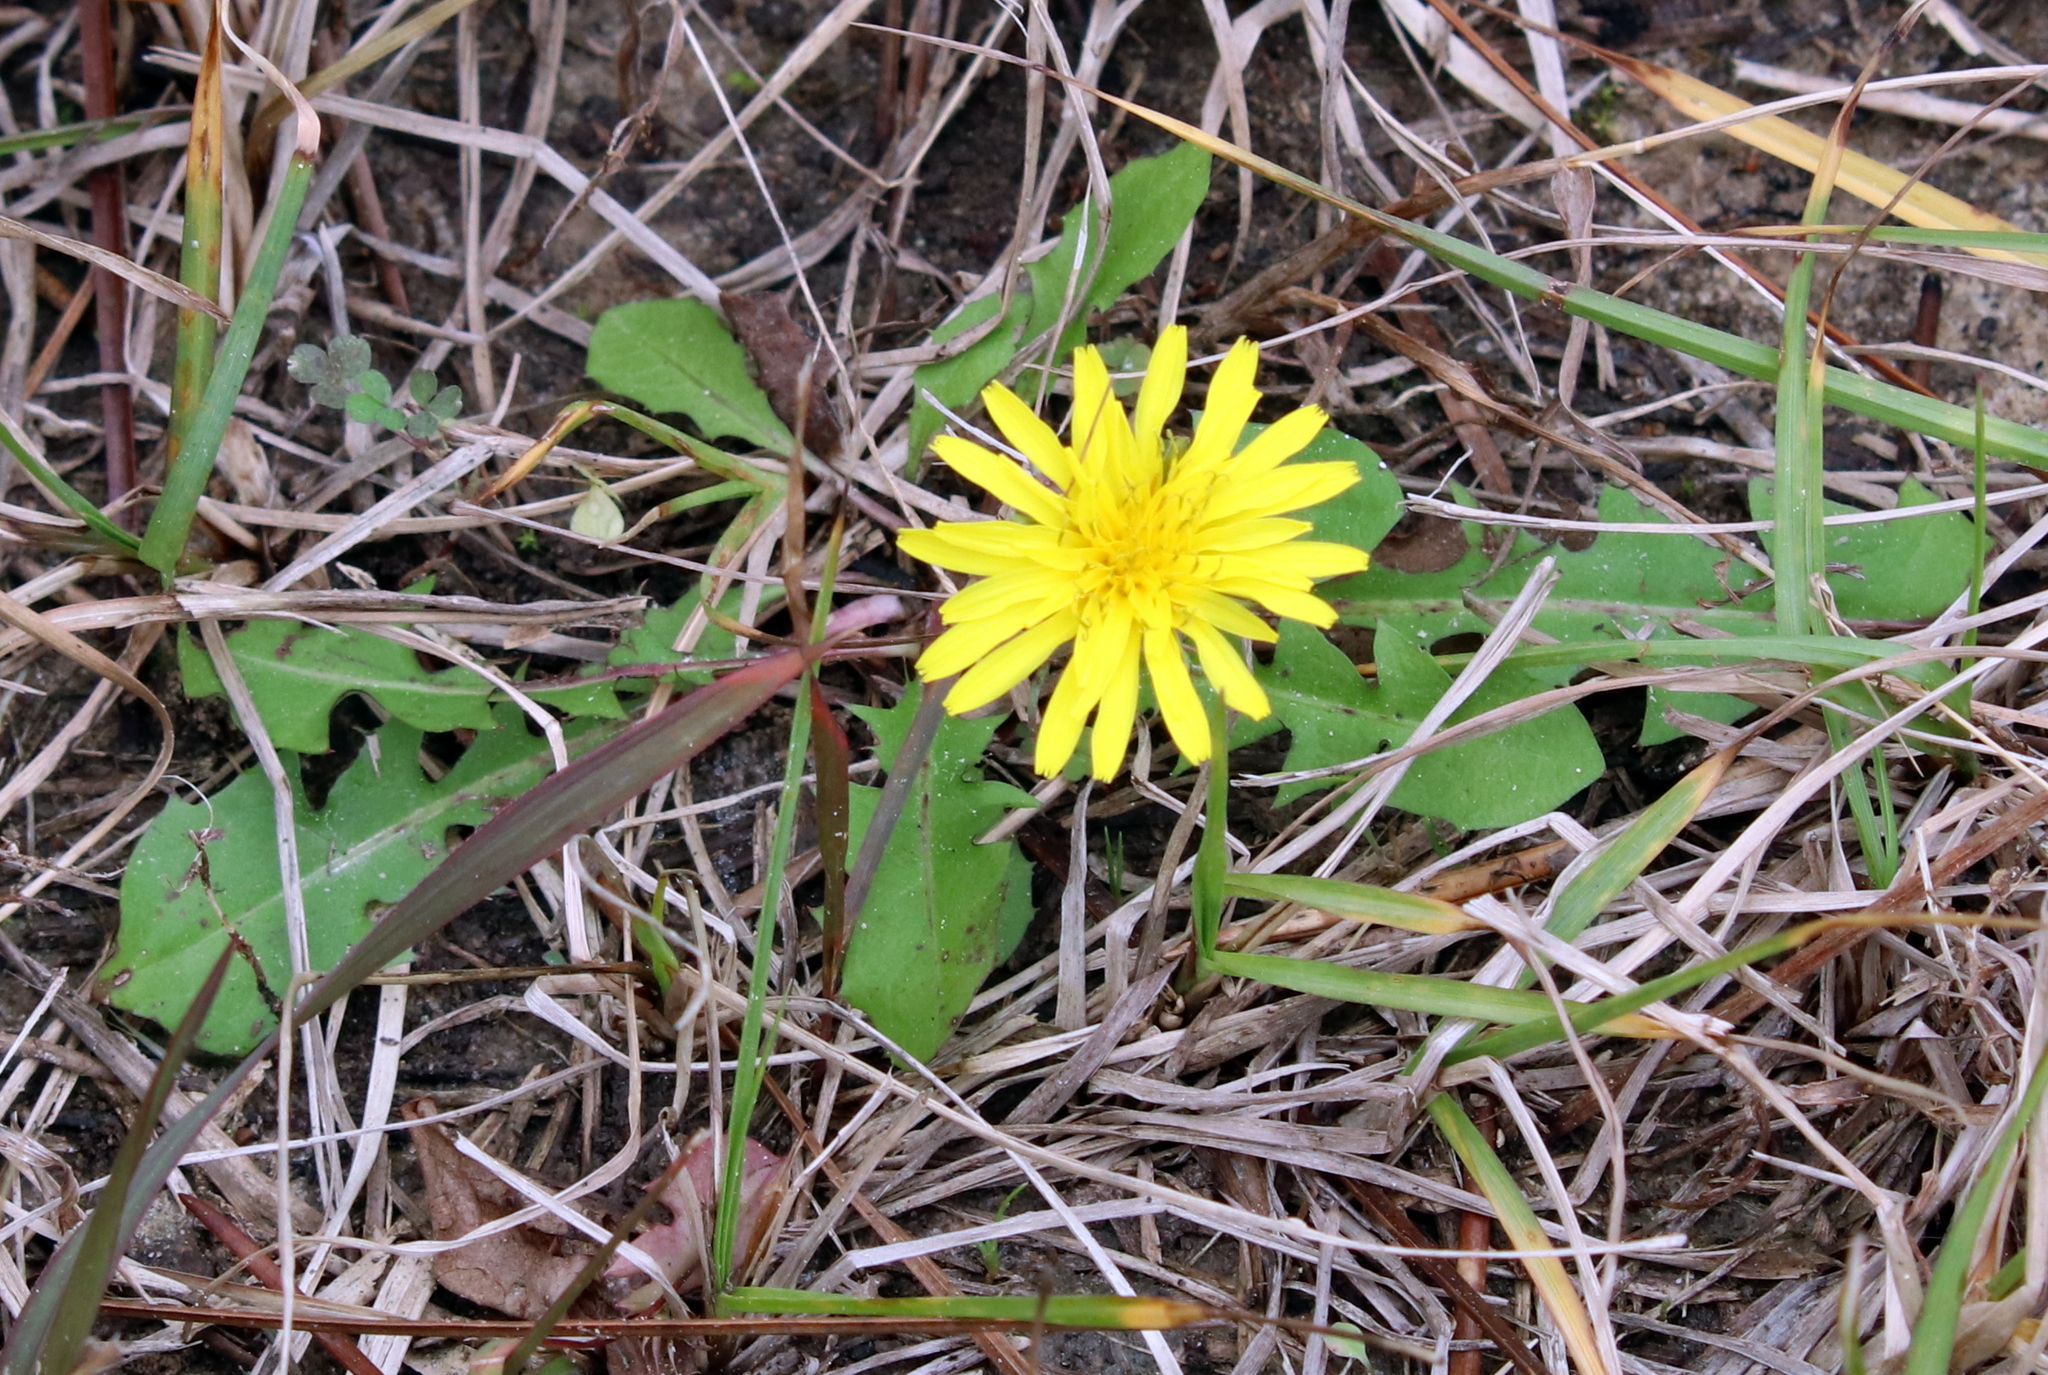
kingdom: Plantae
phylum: Tracheophyta
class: Magnoliopsida
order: Asterales
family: Asteraceae
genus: Taraxacum
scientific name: Taraxacum officinale
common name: Common dandelion
